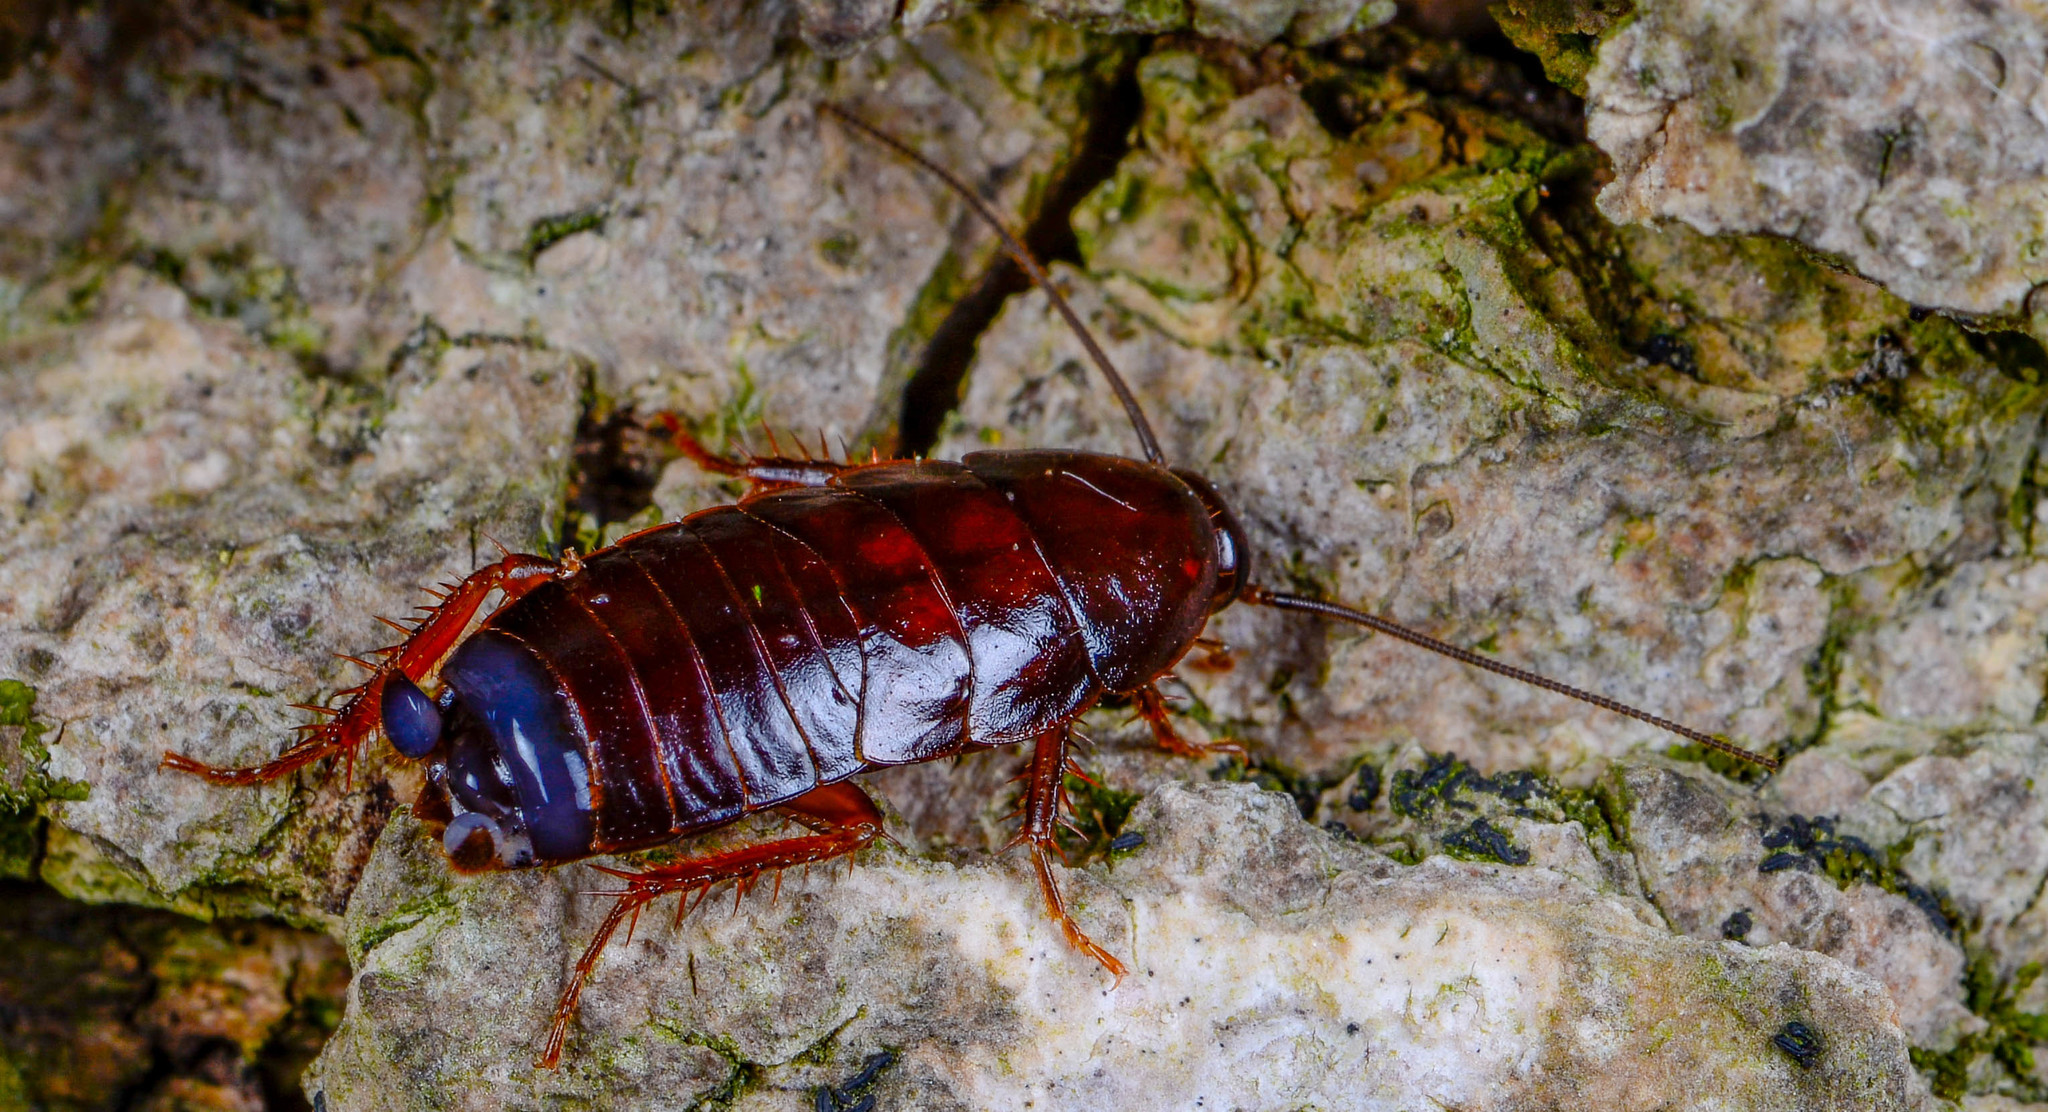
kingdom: Animalia
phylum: Arthropoda
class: Insecta
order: Blattodea
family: Ectobiidae
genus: Parcoblatta
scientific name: Parcoblatta virginica
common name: Virginia wood cockroach
